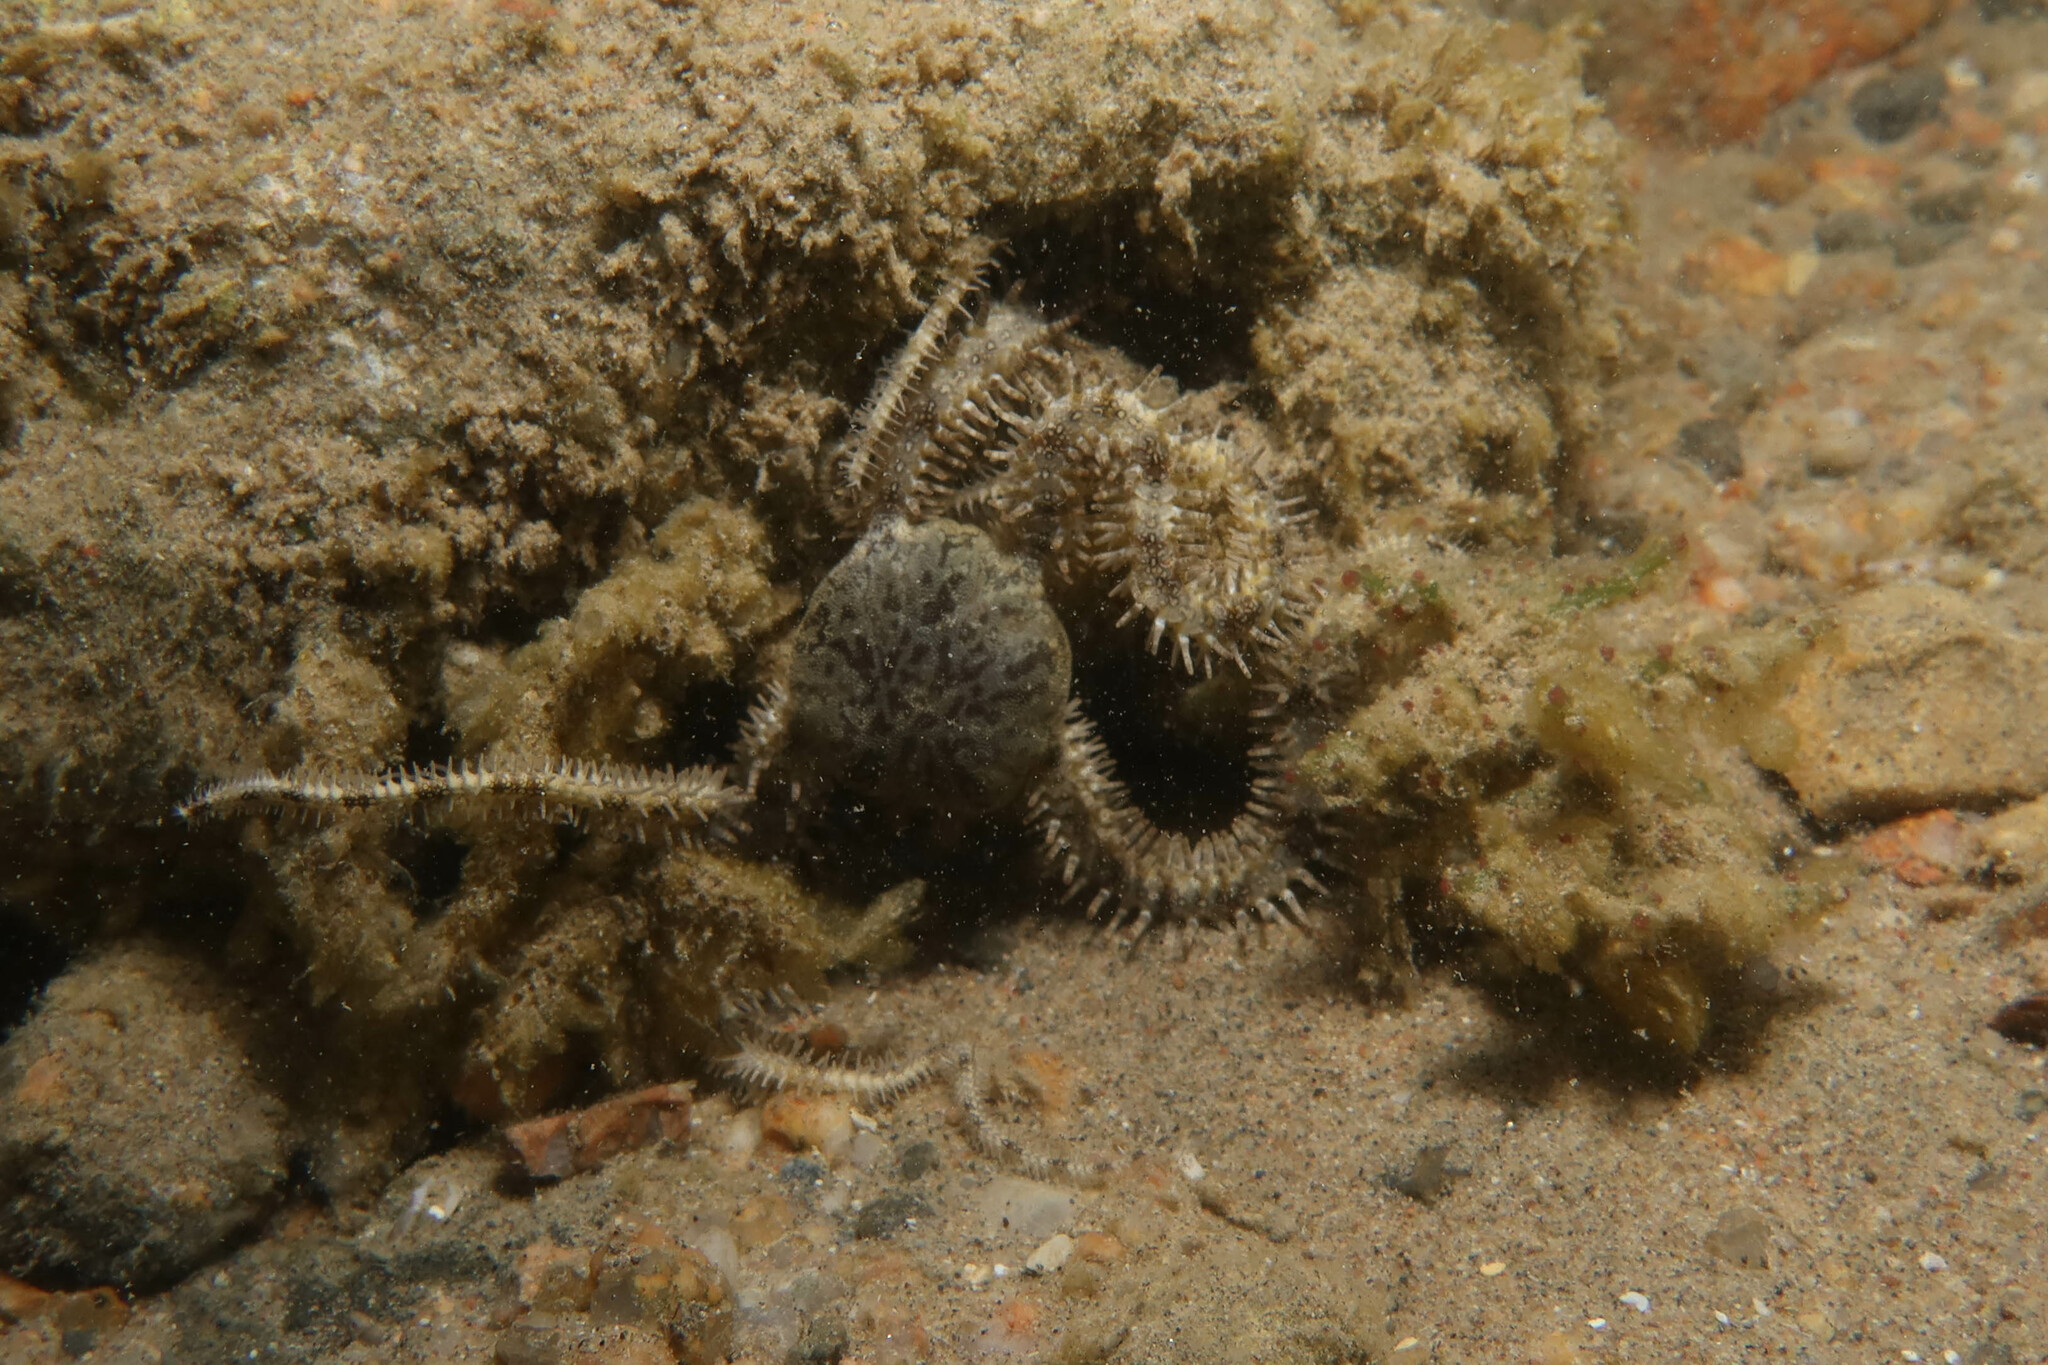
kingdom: Animalia
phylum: Echinodermata
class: Ophiuroidea
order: Ophiacanthida
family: Ophiocomidae
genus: Ophiocoma
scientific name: Ophiocoma scolopendrina
